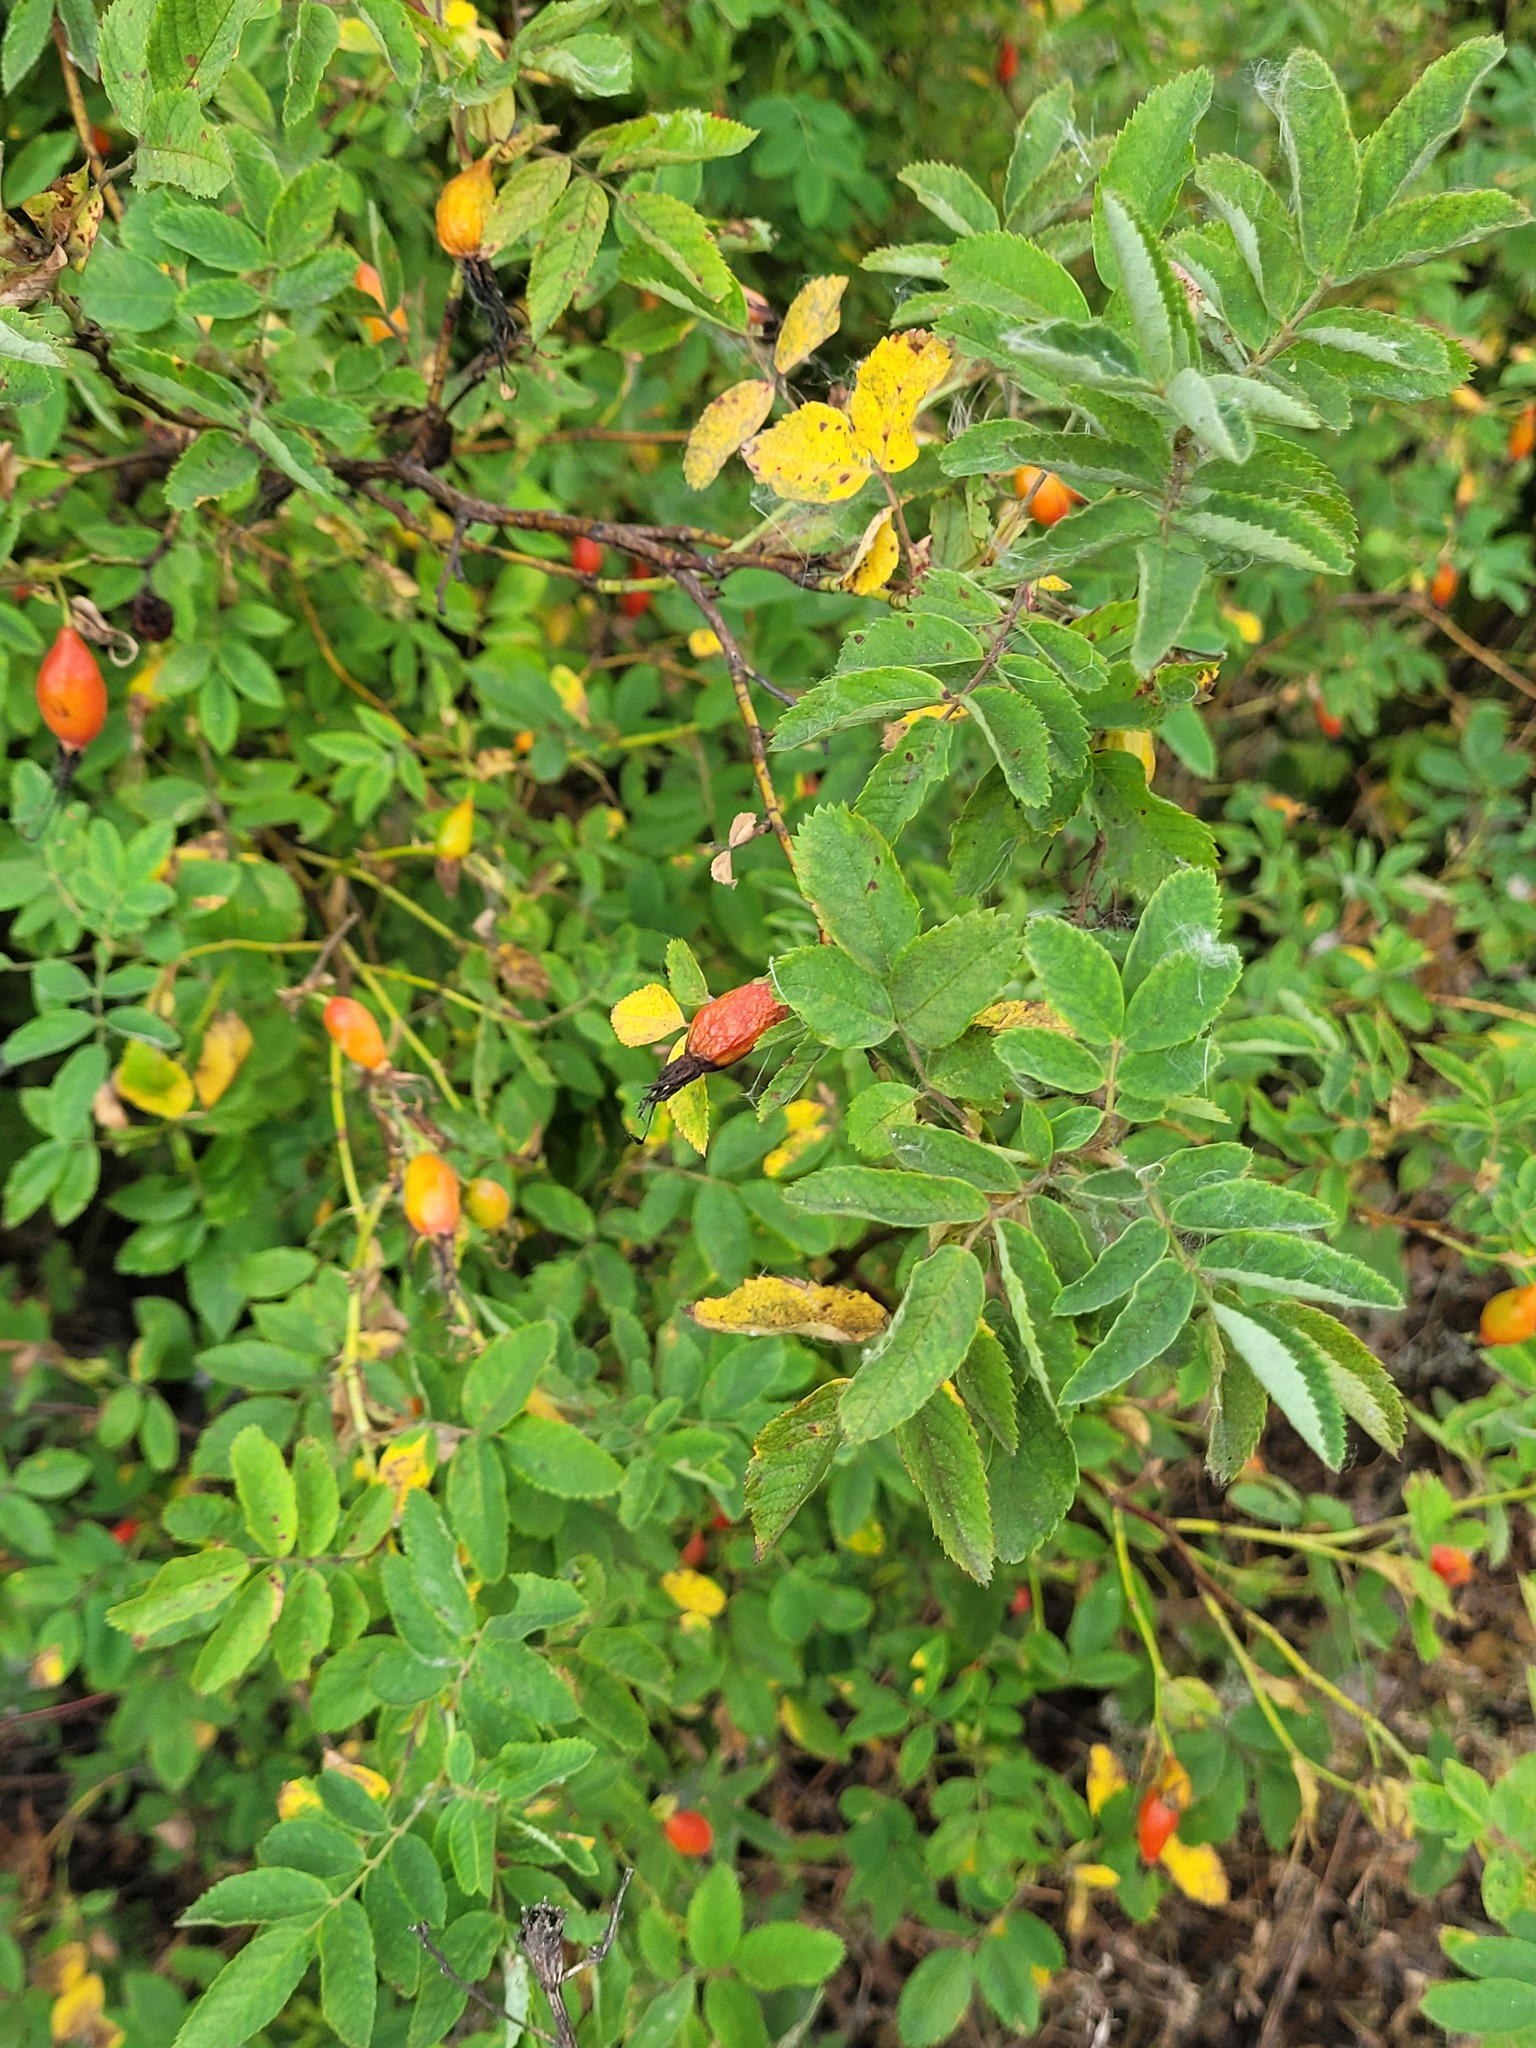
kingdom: Plantae
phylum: Tracheophyta
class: Magnoliopsida
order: Rosales
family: Rosaceae
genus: Rosa
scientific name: Rosa majalis
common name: Cinnamon rose
